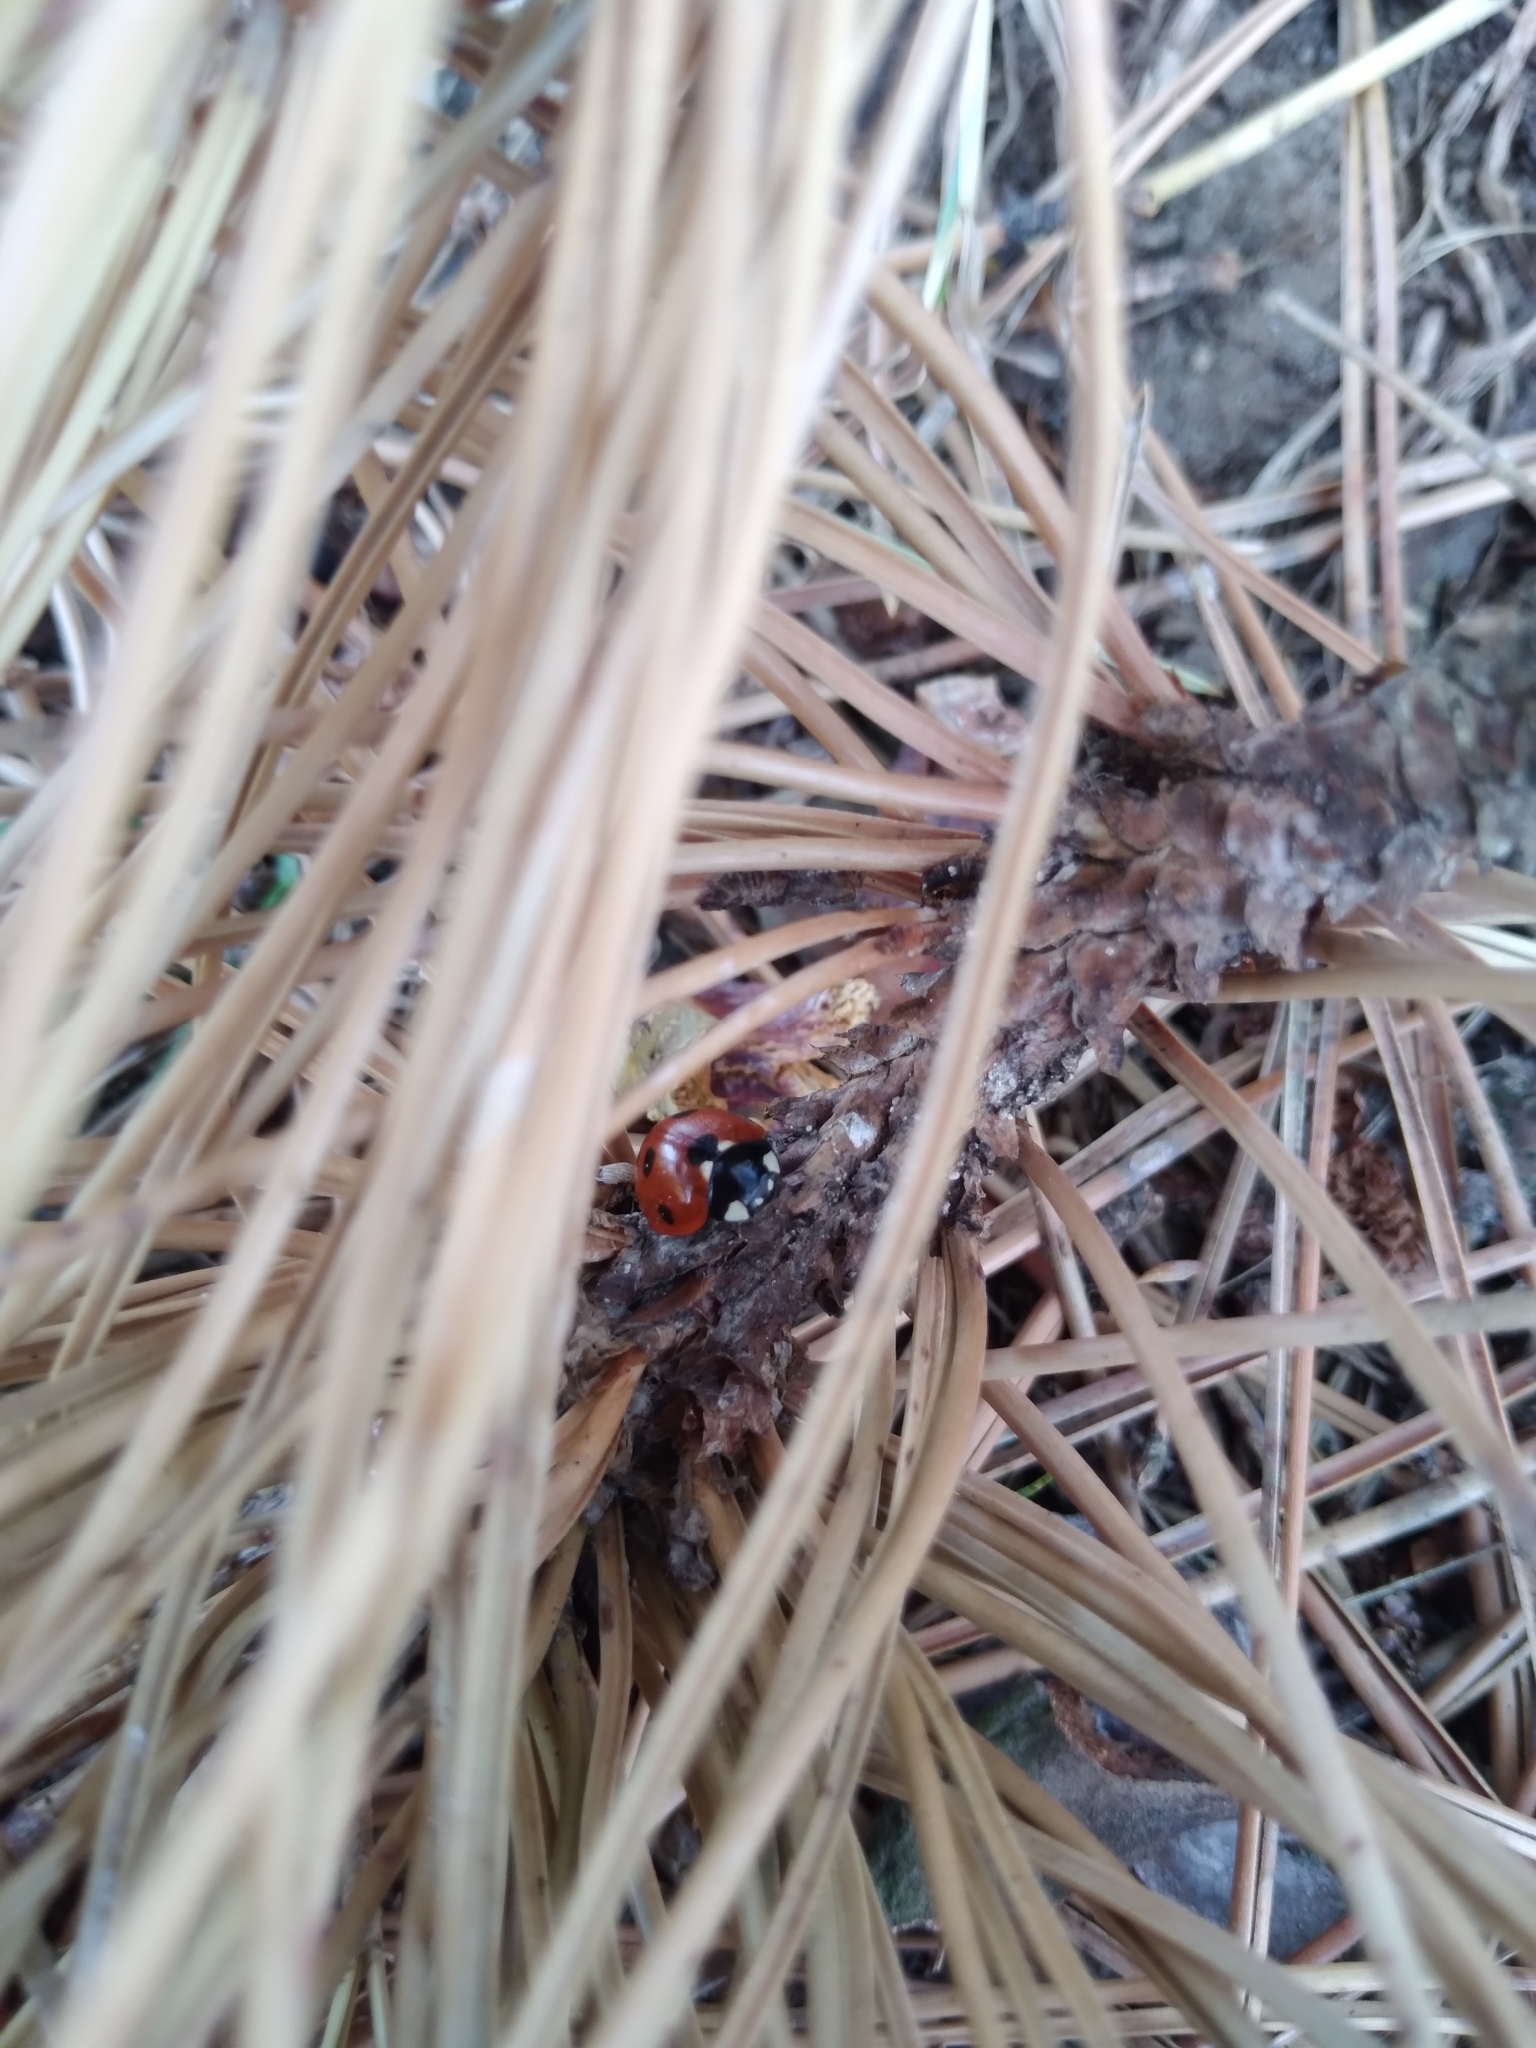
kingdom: Animalia
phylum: Arthropoda
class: Insecta
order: Coleoptera
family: Coccinellidae
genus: Coccinella
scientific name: Coccinella septempunctata
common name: Sevenspotted lady beetle
